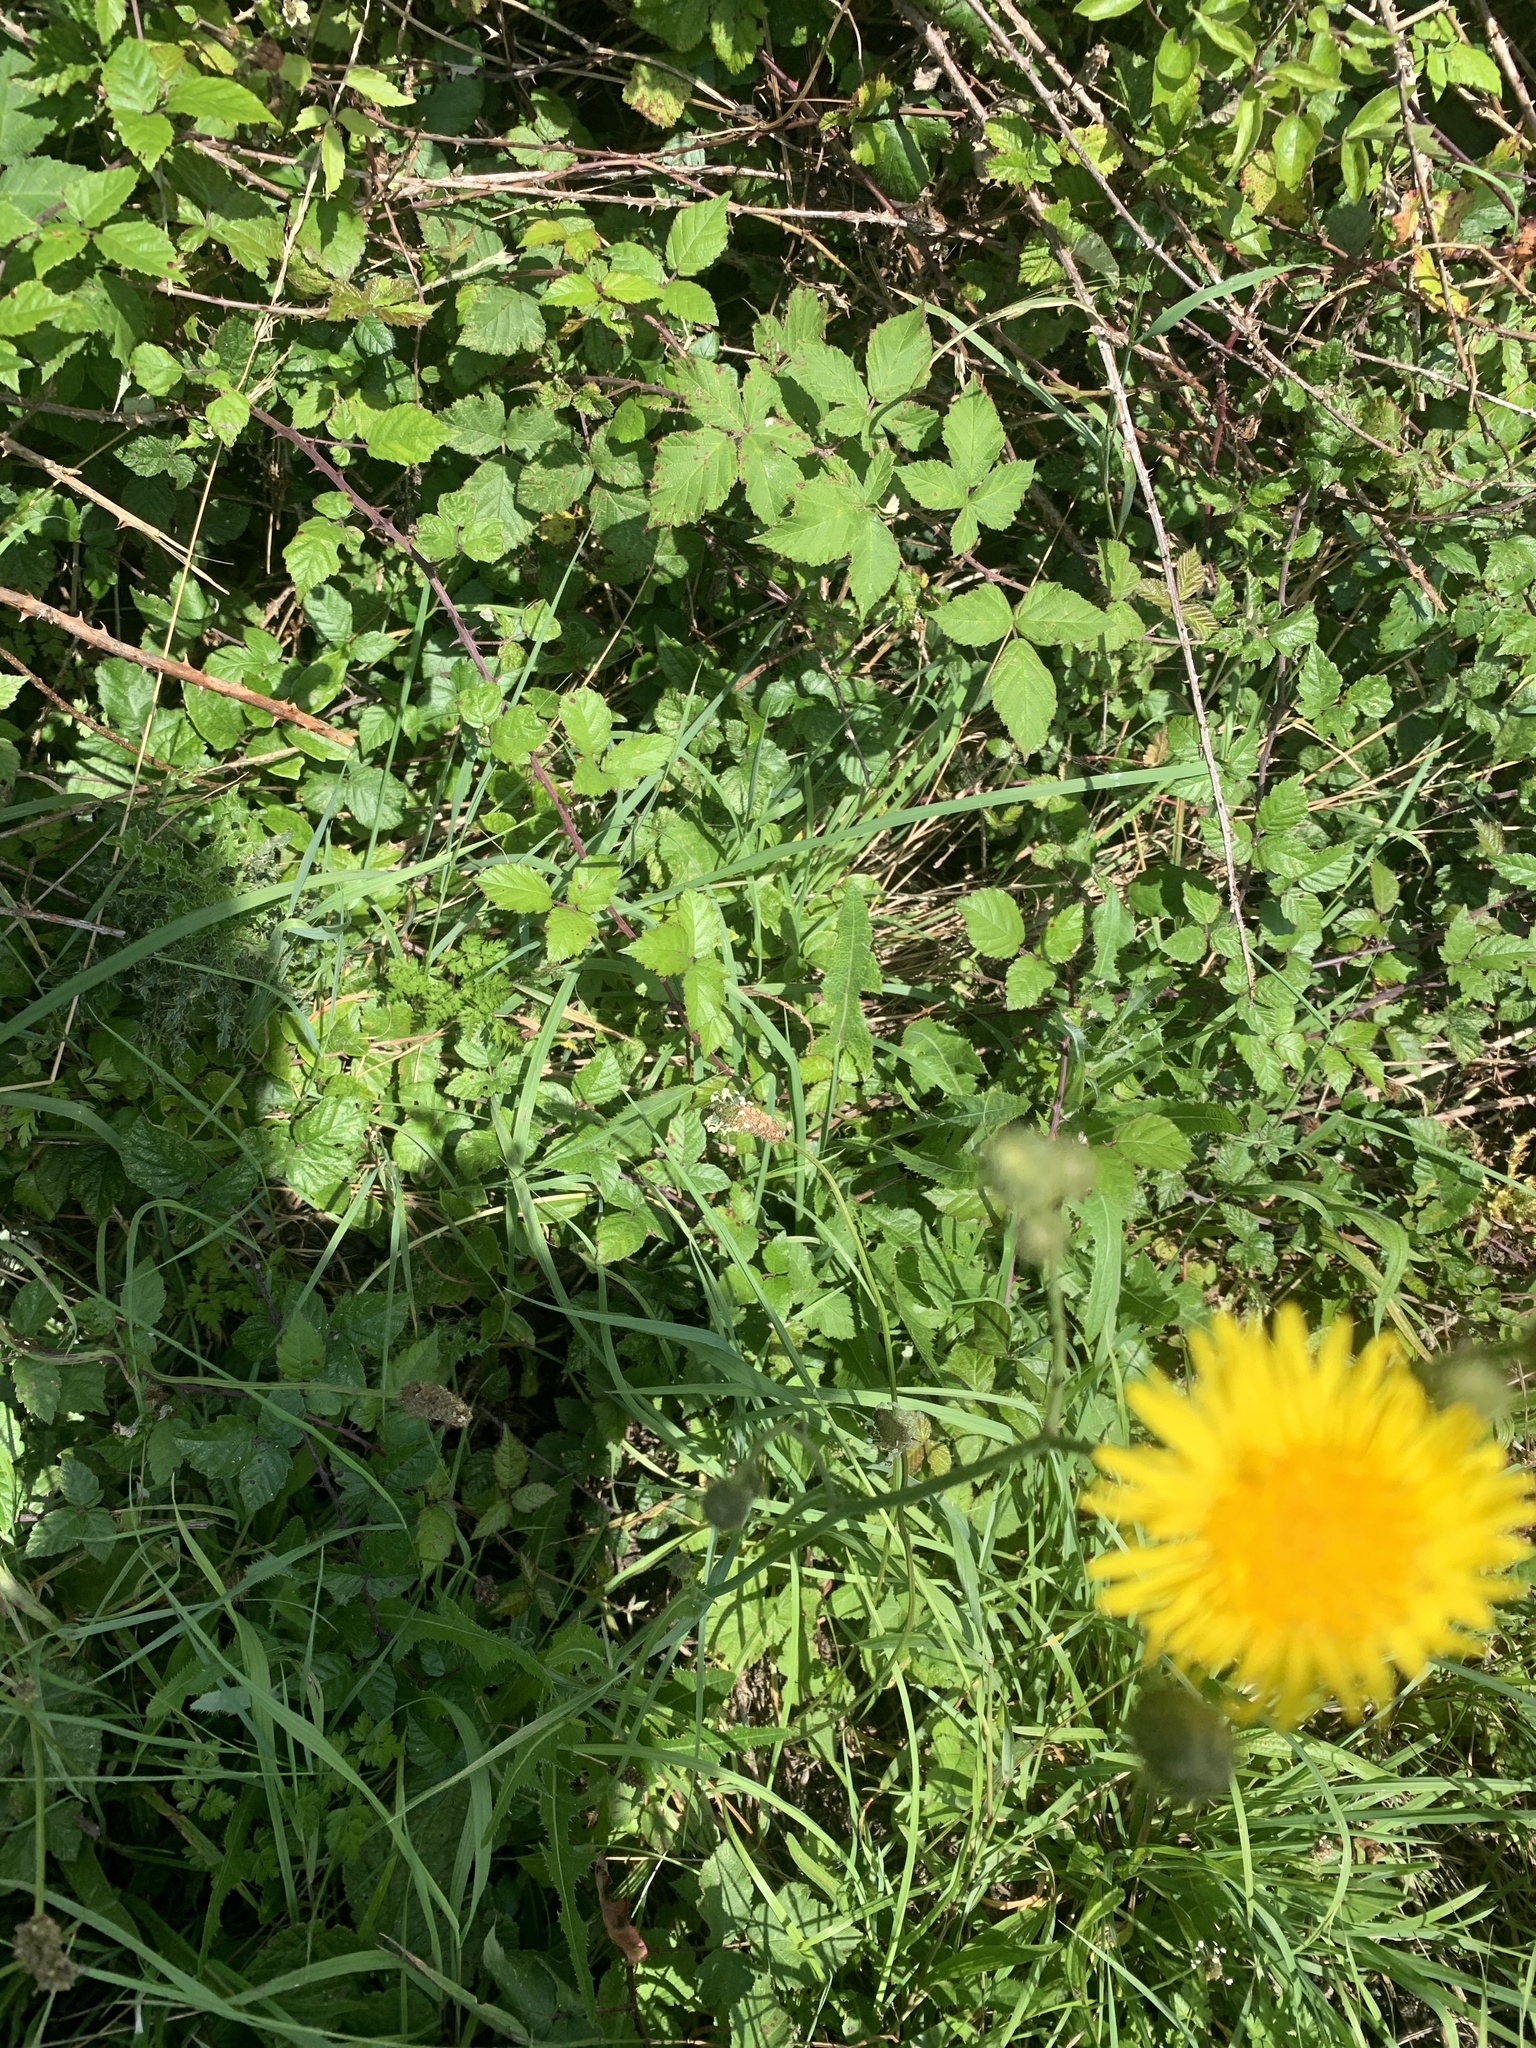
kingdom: Plantae
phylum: Tracheophyta
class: Magnoliopsida
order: Asterales
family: Asteraceae
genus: Hypochaeris
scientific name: Hypochaeris radicata
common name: Flatweed
